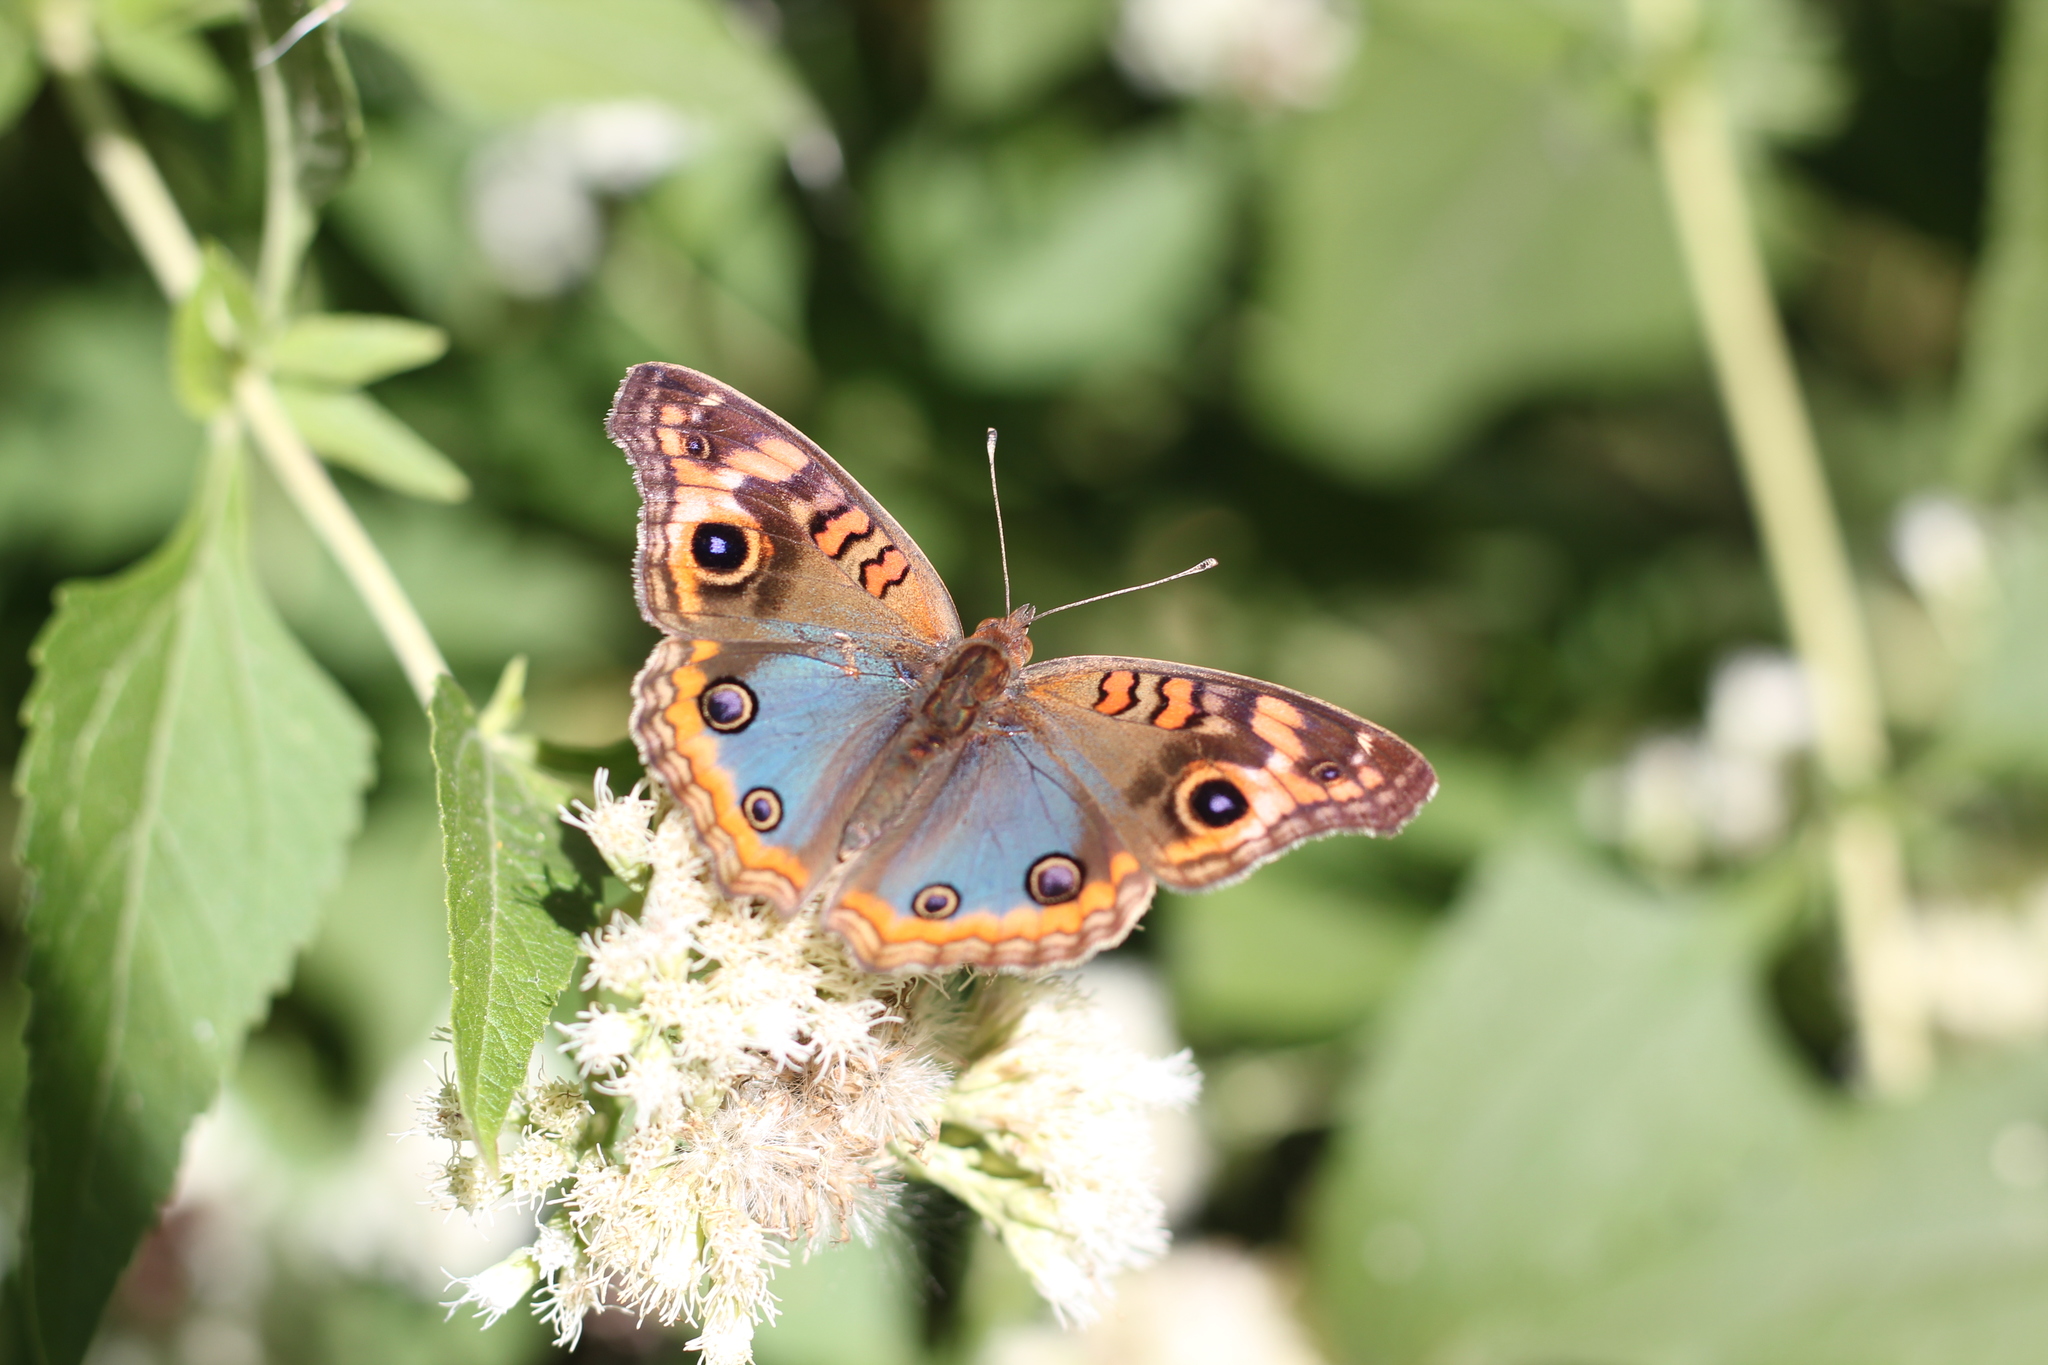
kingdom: Animalia
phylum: Arthropoda
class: Insecta
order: Lepidoptera
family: Nymphalidae
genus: Junonia
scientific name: Junonia lavinia
